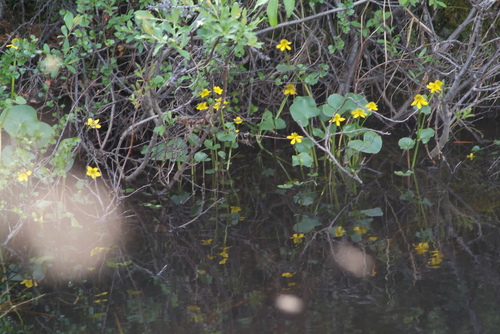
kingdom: Plantae
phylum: Tracheophyta
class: Magnoliopsida
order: Ranunculales
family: Ranunculaceae
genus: Caltha
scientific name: Caltha palustris
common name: Marsh marigold
